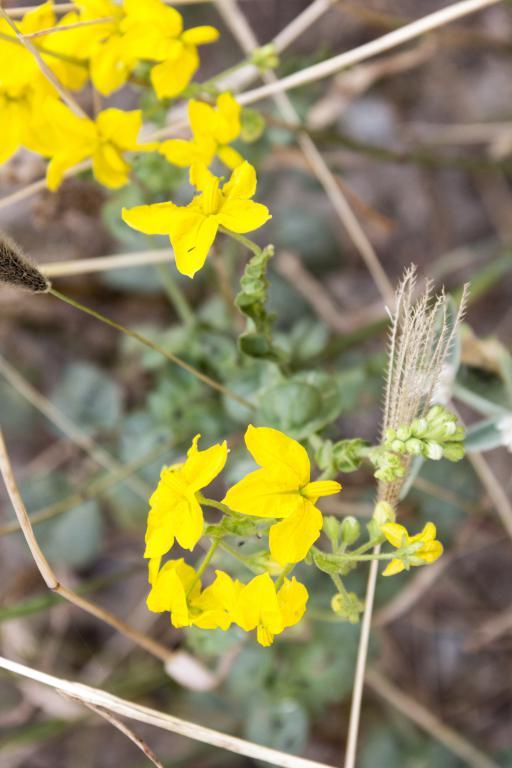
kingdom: Plantae
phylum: Tracheophyta
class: Magnoliopsida
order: Solanales
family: Solanaceae
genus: Solanum
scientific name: Solanum pennellii
